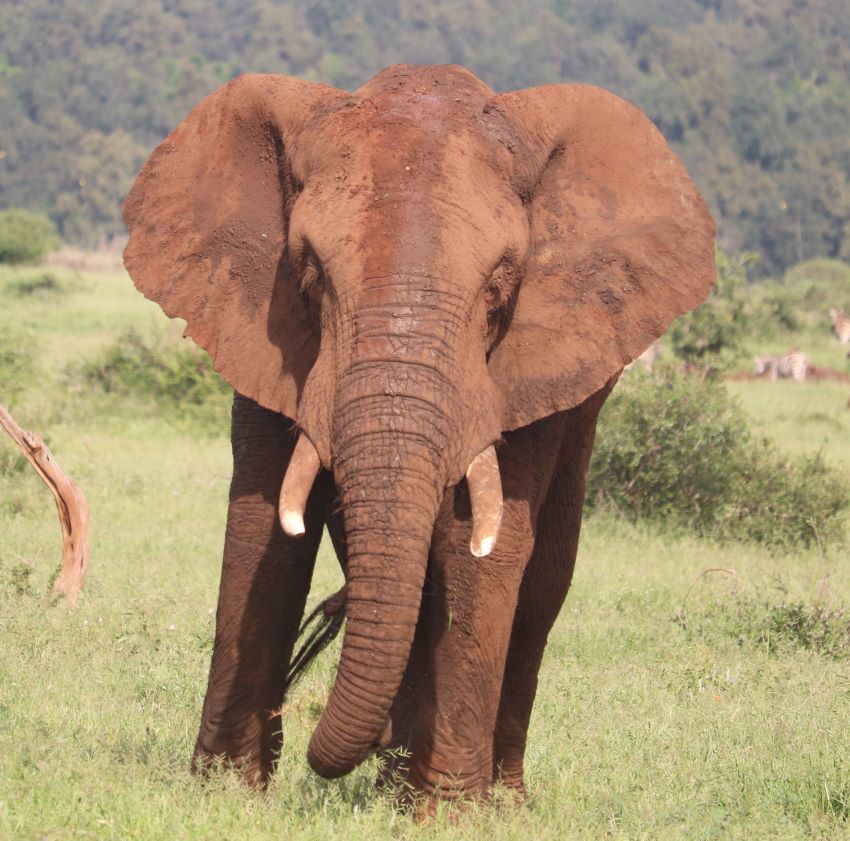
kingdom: Animalia
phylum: Chordata
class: Mammalia
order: Proboscidea
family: Elephantidae
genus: Loxodonta
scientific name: Loxodonta africana
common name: African elephant
